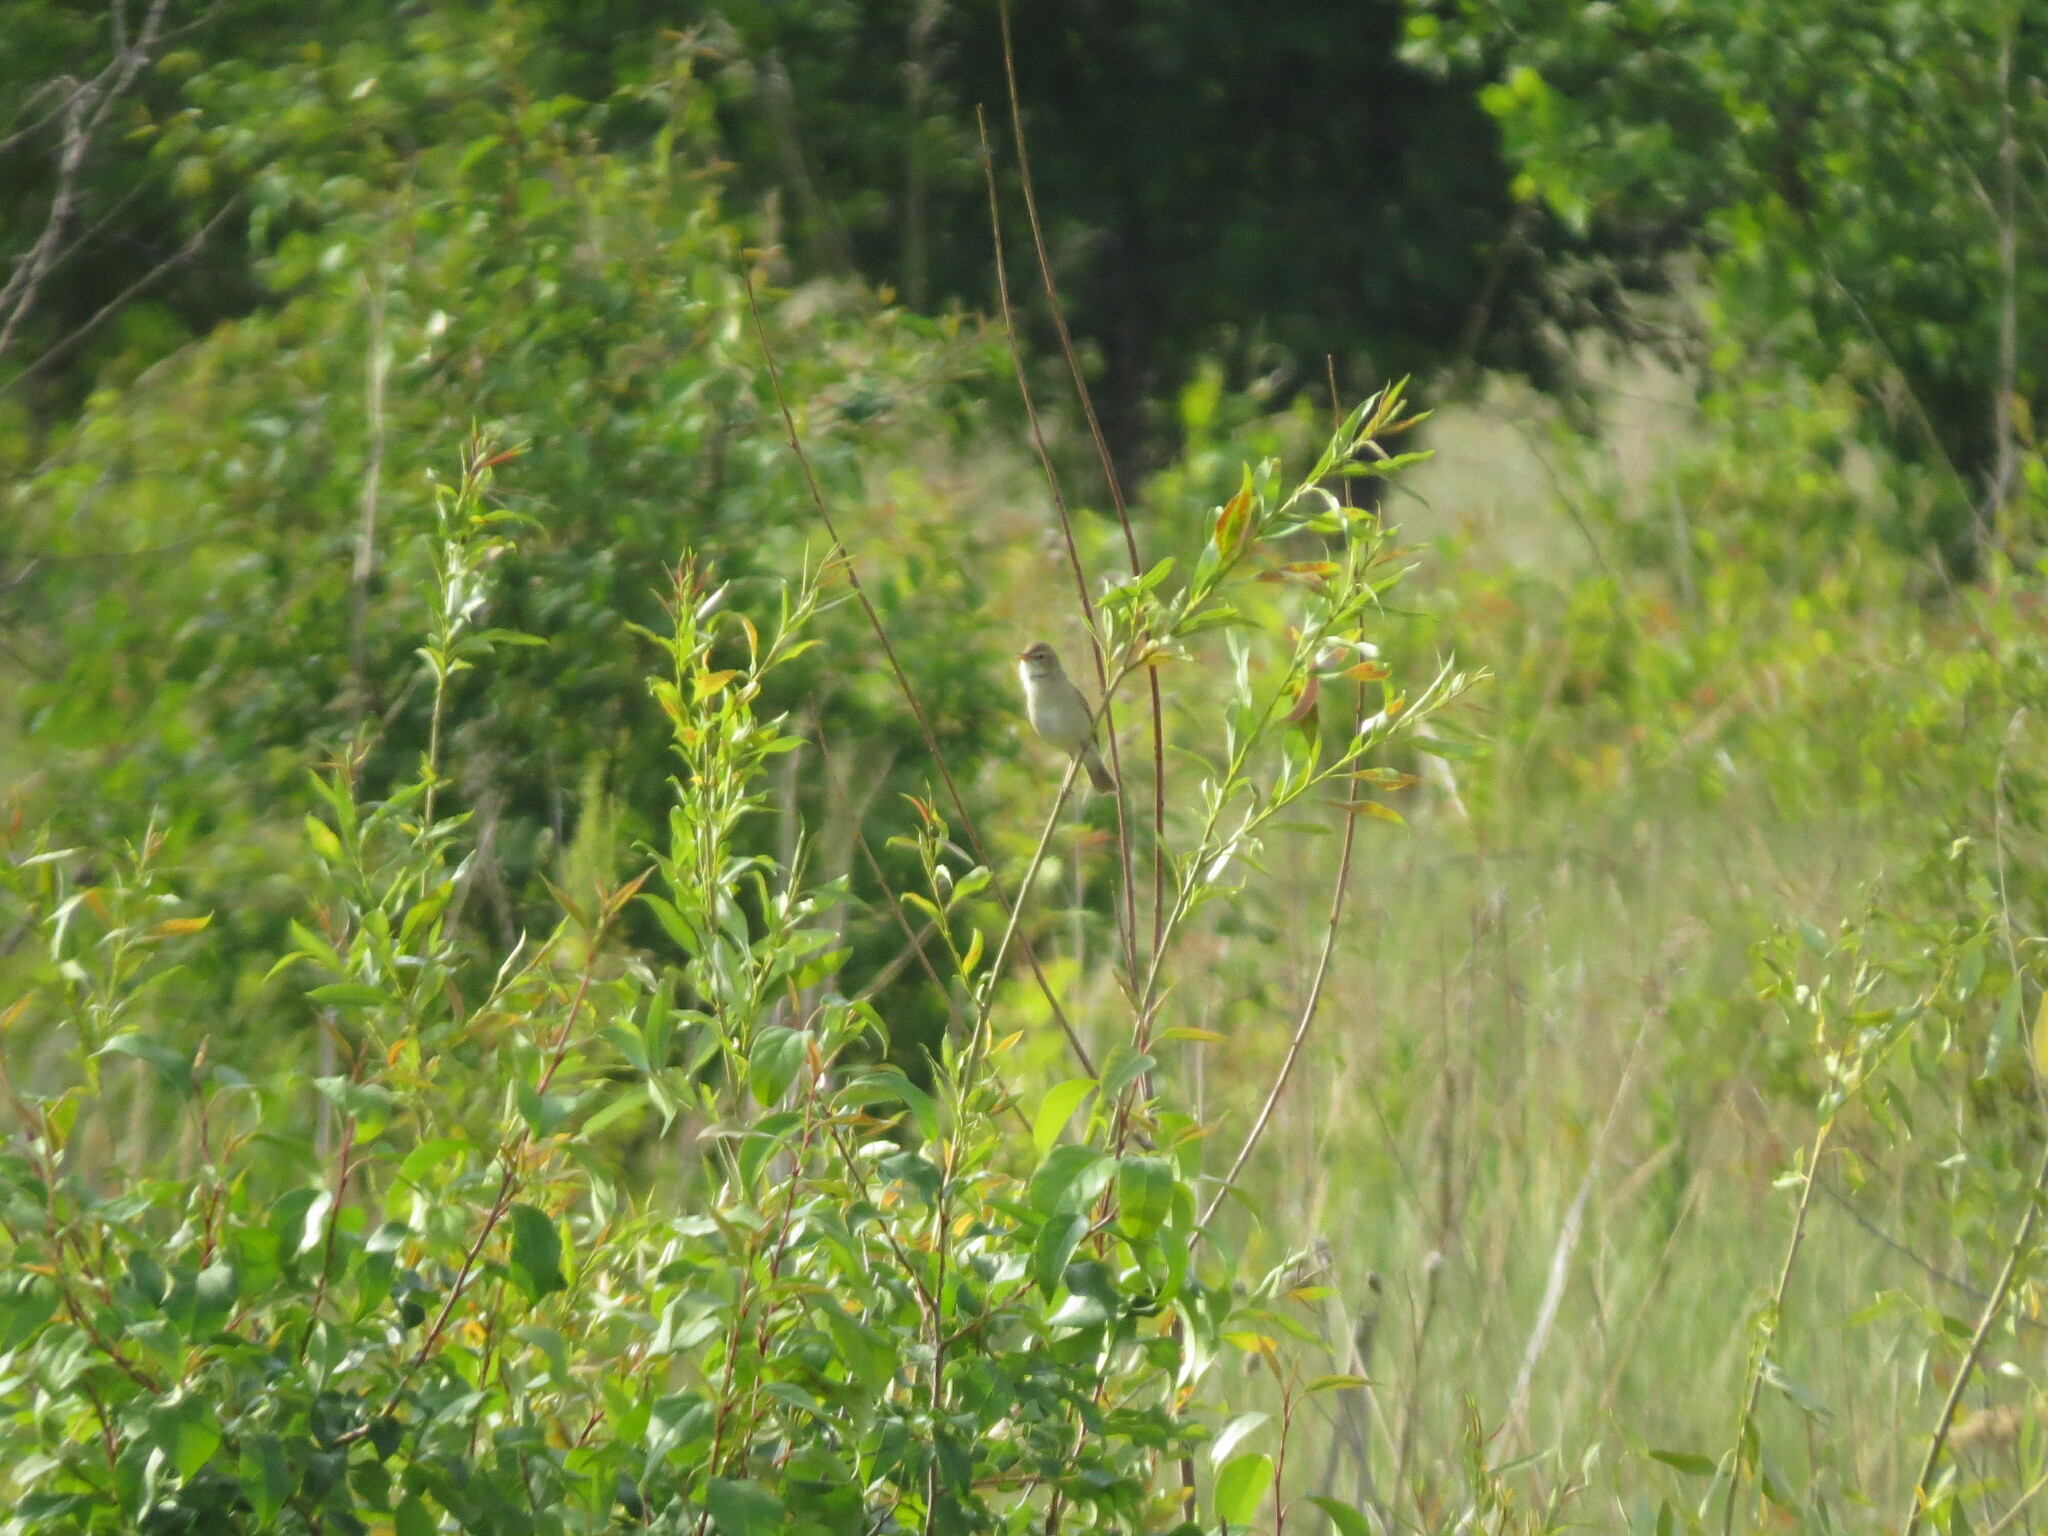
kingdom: Animalia
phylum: Chordata
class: Aves
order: Passeriformes
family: Acrocephalidae
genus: Iduna
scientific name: Iduna caligata
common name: Booted warbler
